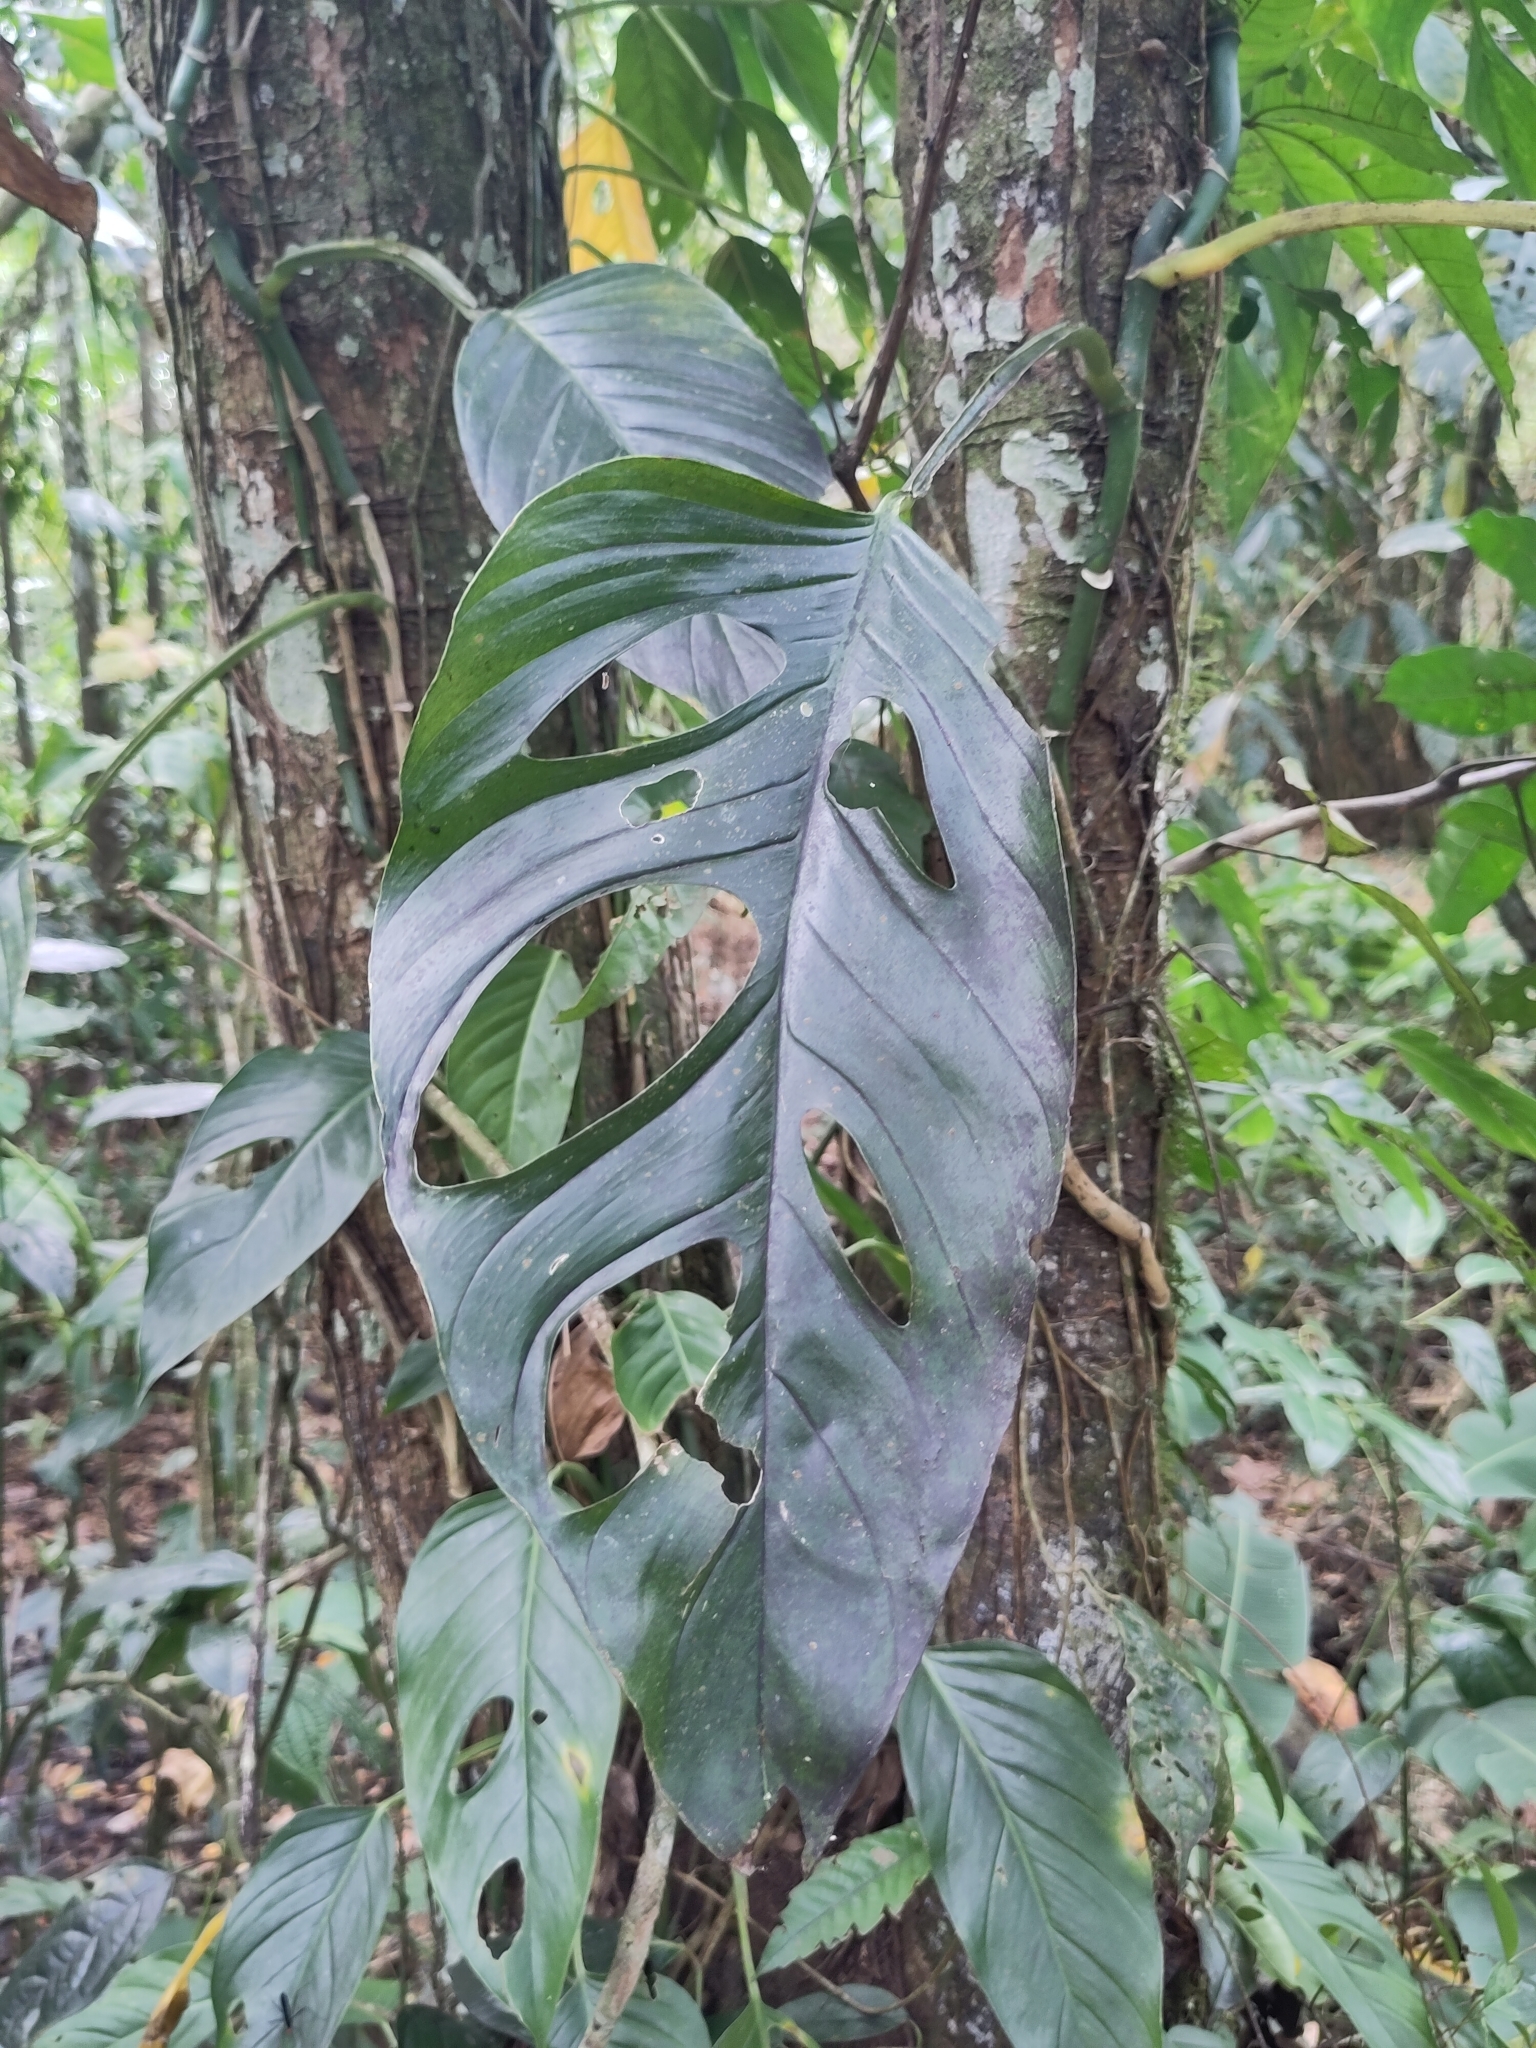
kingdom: Plantae
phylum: Tracheophyta
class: Liliopsida
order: Alismatales
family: Araceae
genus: Monstera
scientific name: Monstera adansonii
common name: Tarovine
